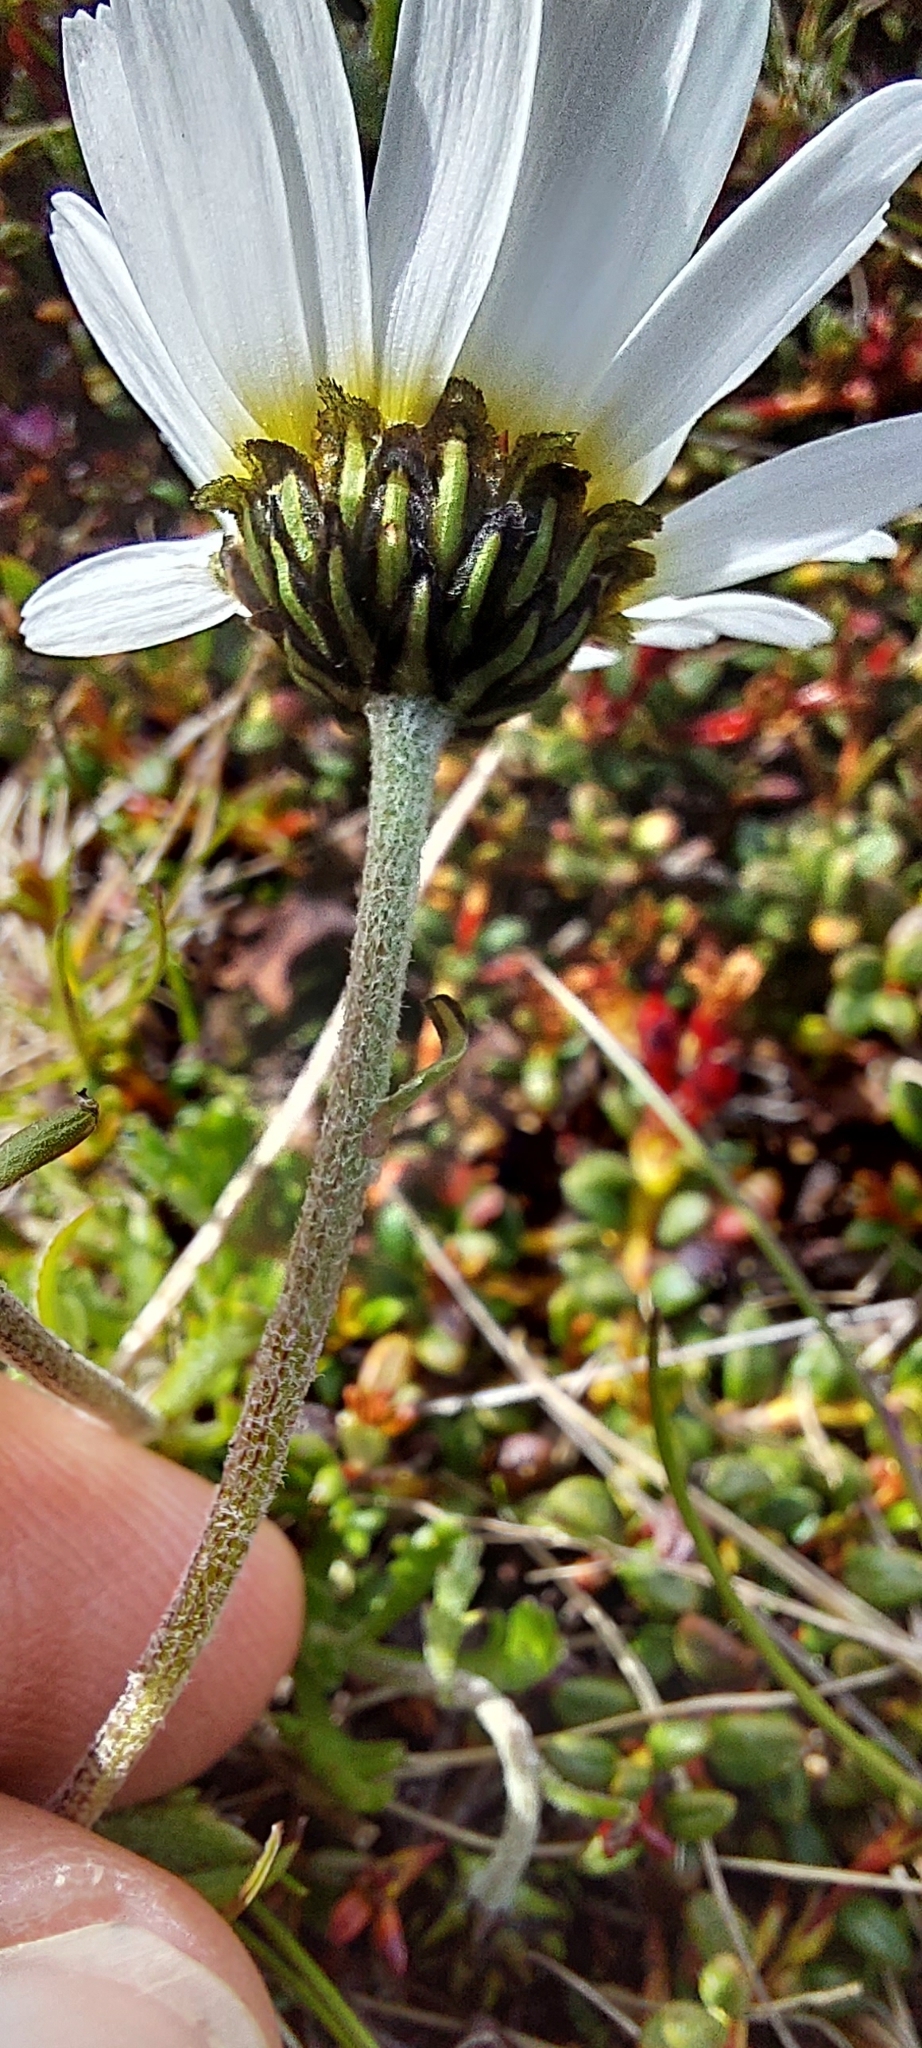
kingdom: Plantae
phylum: Tracheophyta
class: Magnoliopsida
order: Asterales
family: Asteraceae
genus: Leucanthemopsis
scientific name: Leucanthemopsis alpina
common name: Alpine moon daisy
